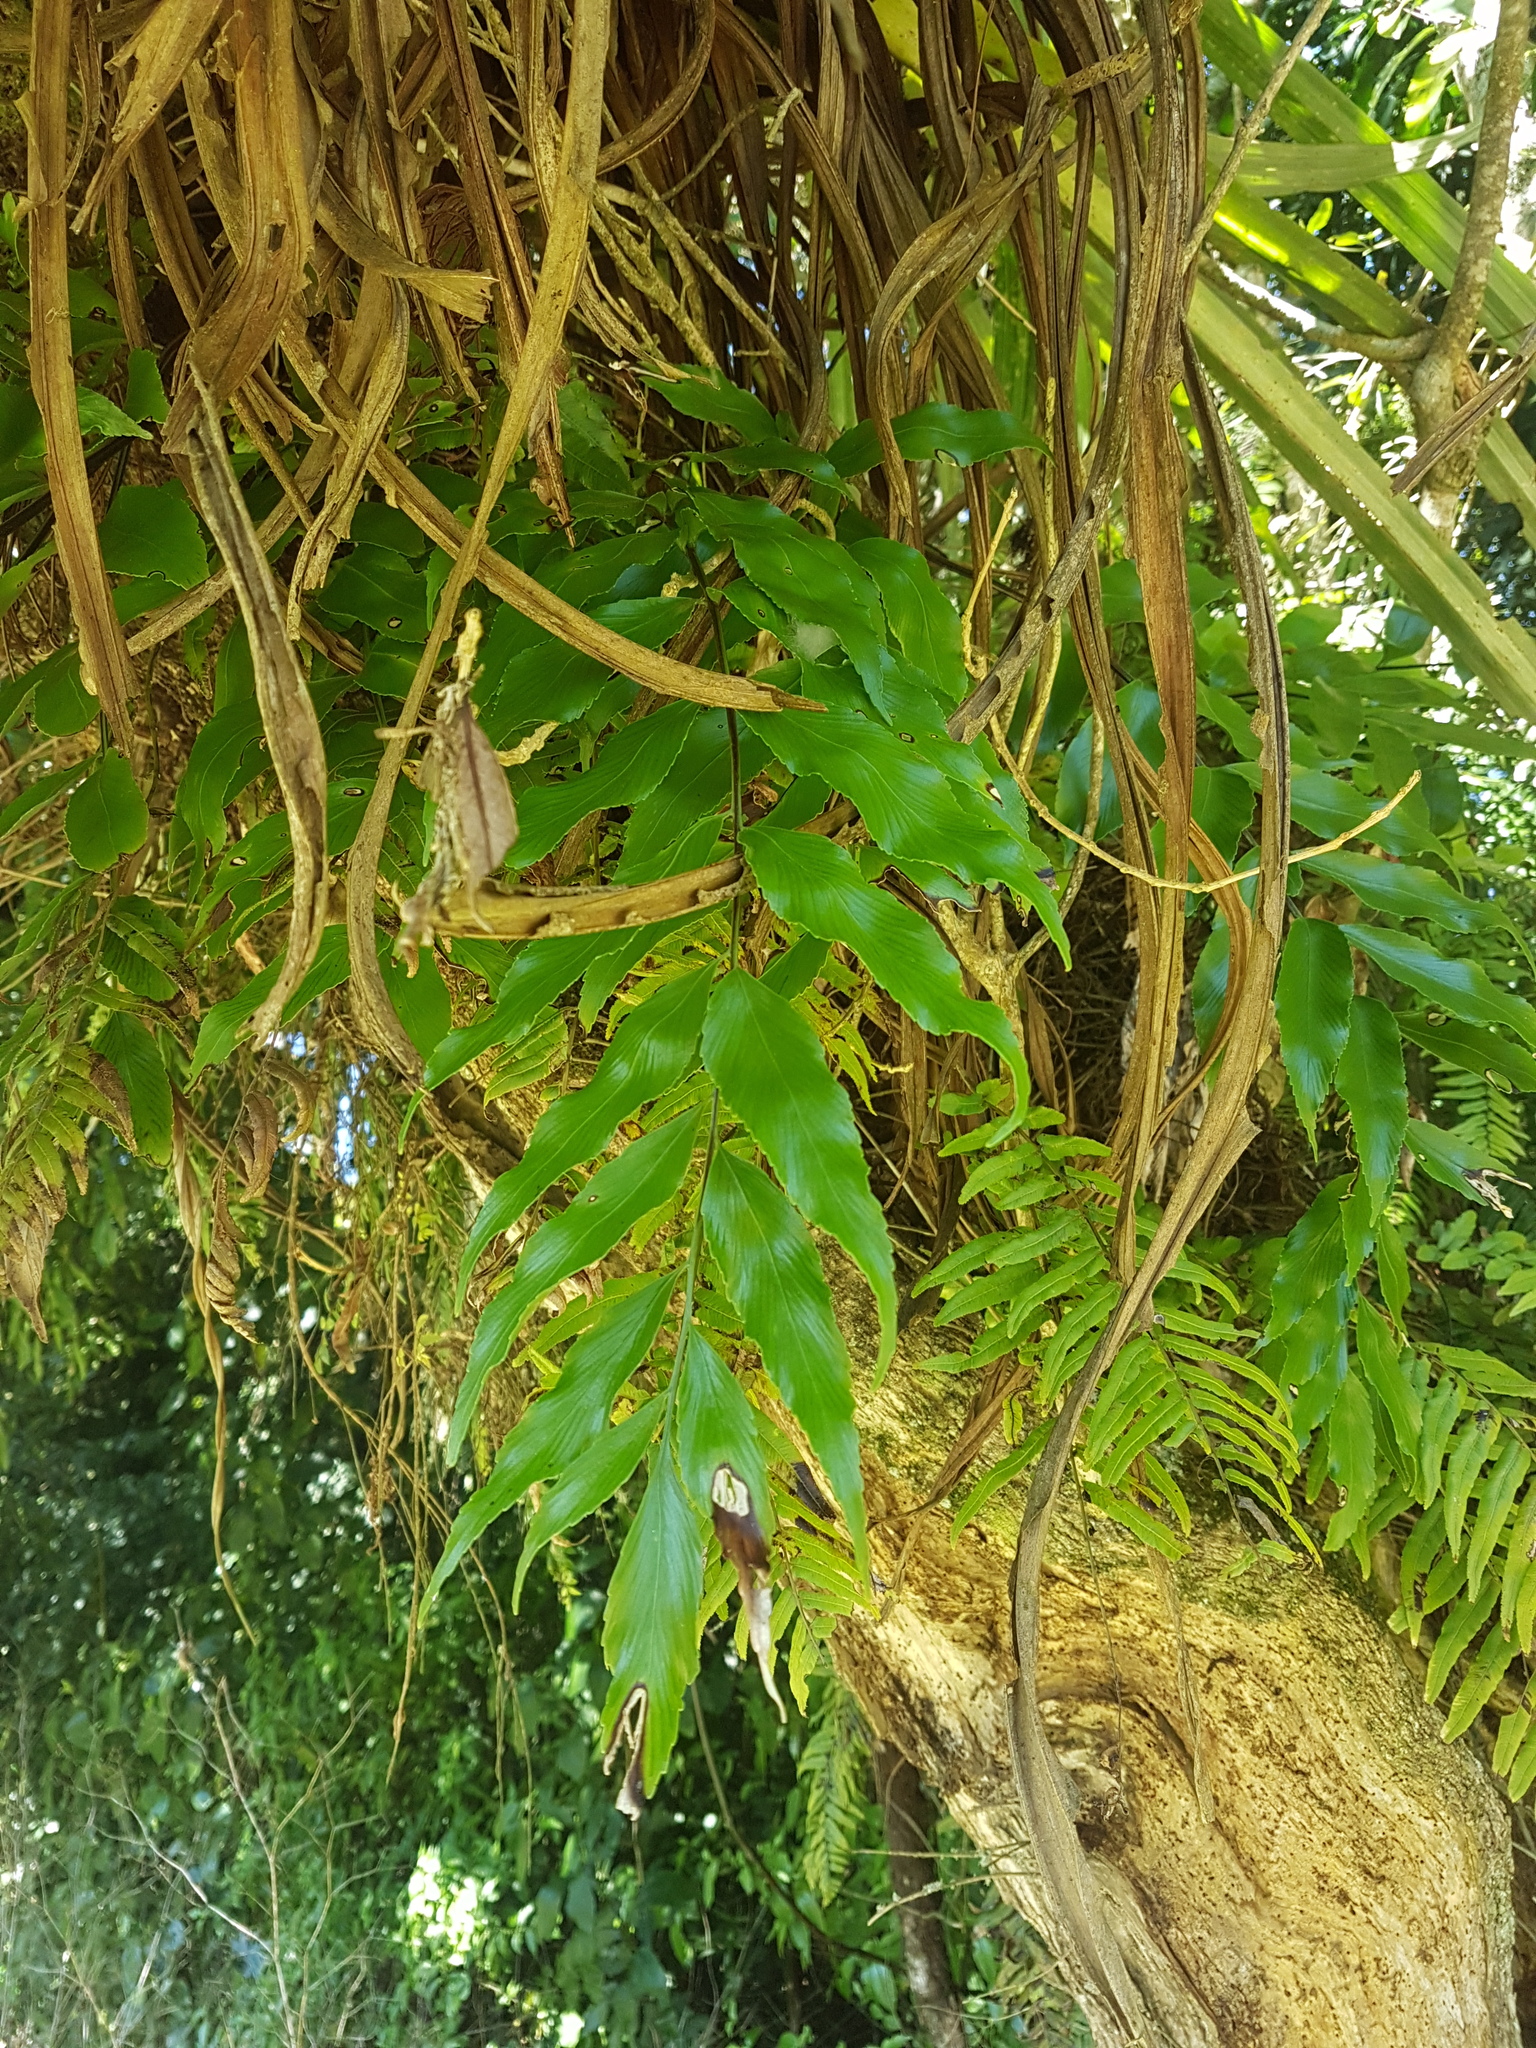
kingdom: Plantae
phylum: Tracheophyta
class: Polypodiopsida
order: Polypodiales
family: Aspleniaceae
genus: Asplenium
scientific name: Asplenium oblongifolium
